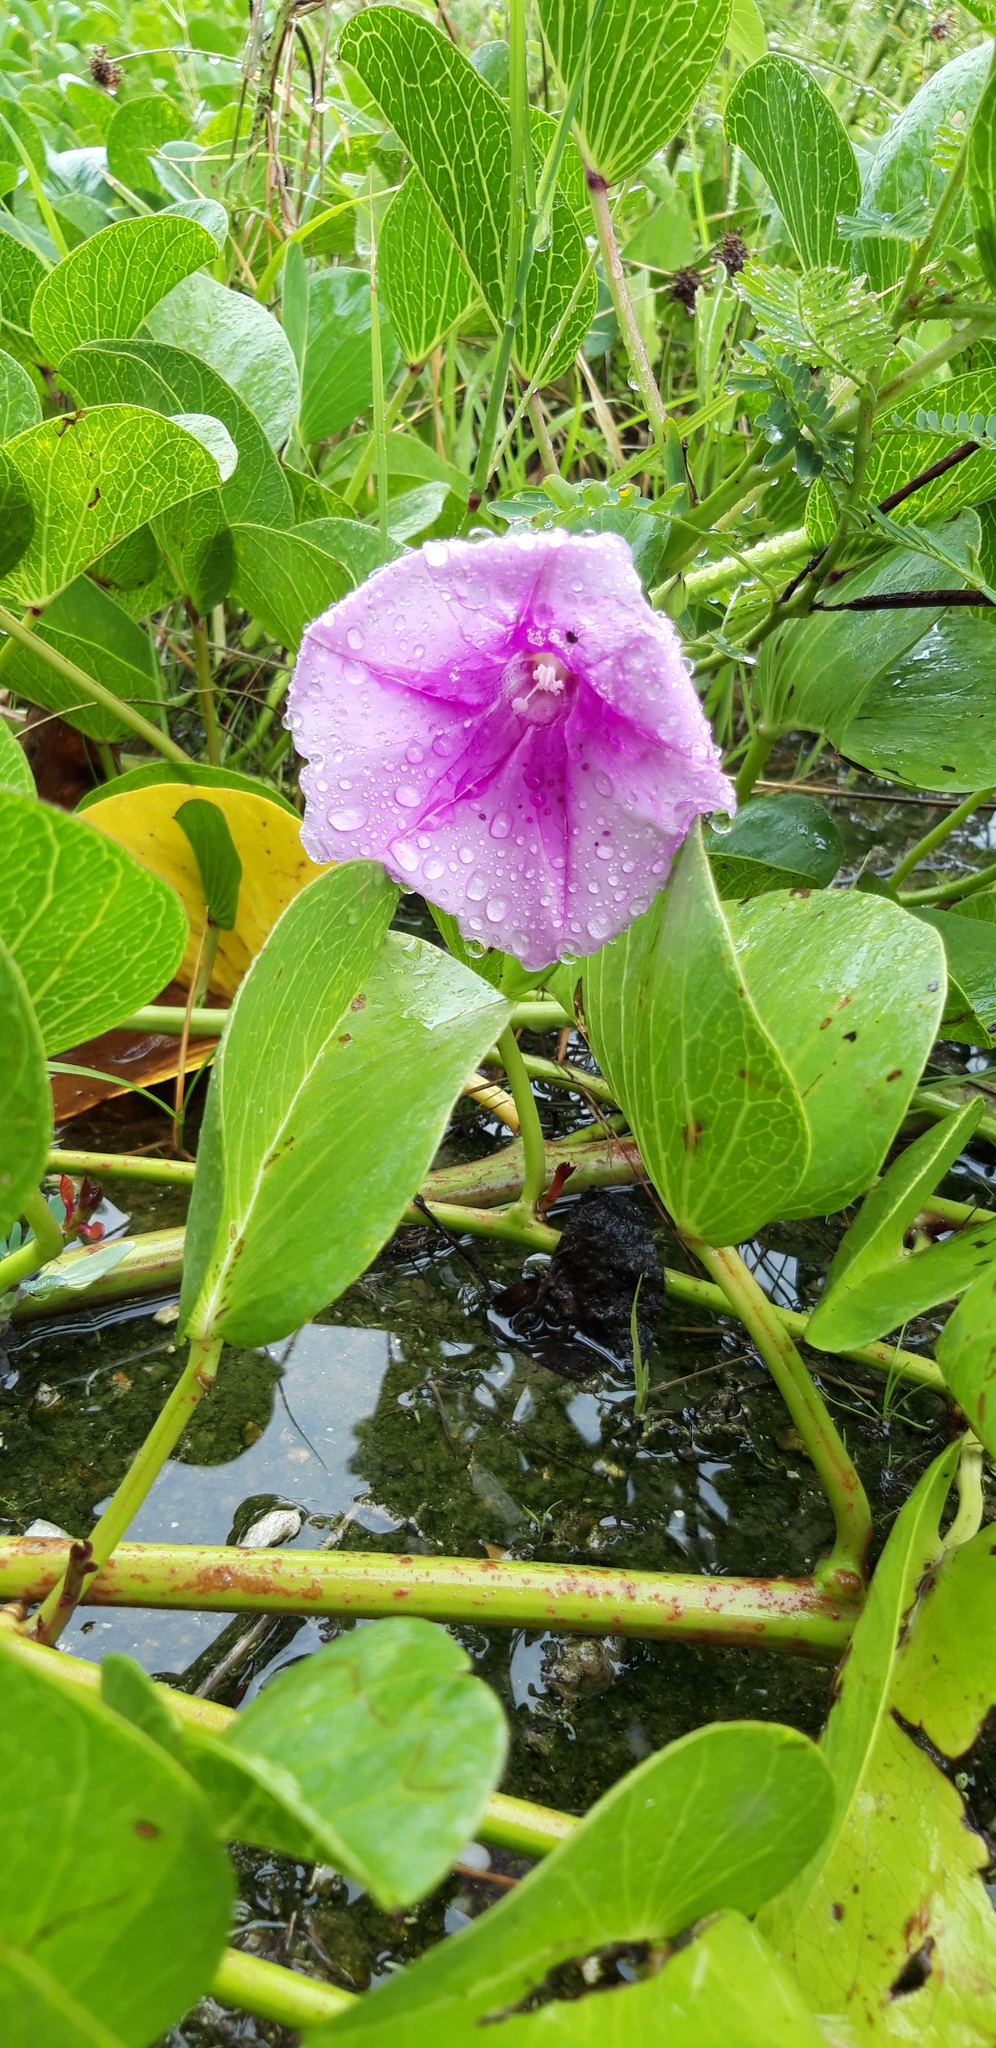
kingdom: Plantae
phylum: Tracheophyta
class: Magnoliopsida
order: Solanales
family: Convolvulaceae
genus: Ipomoea
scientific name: Ipomoea pes-caprae
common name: Beach morning glory
